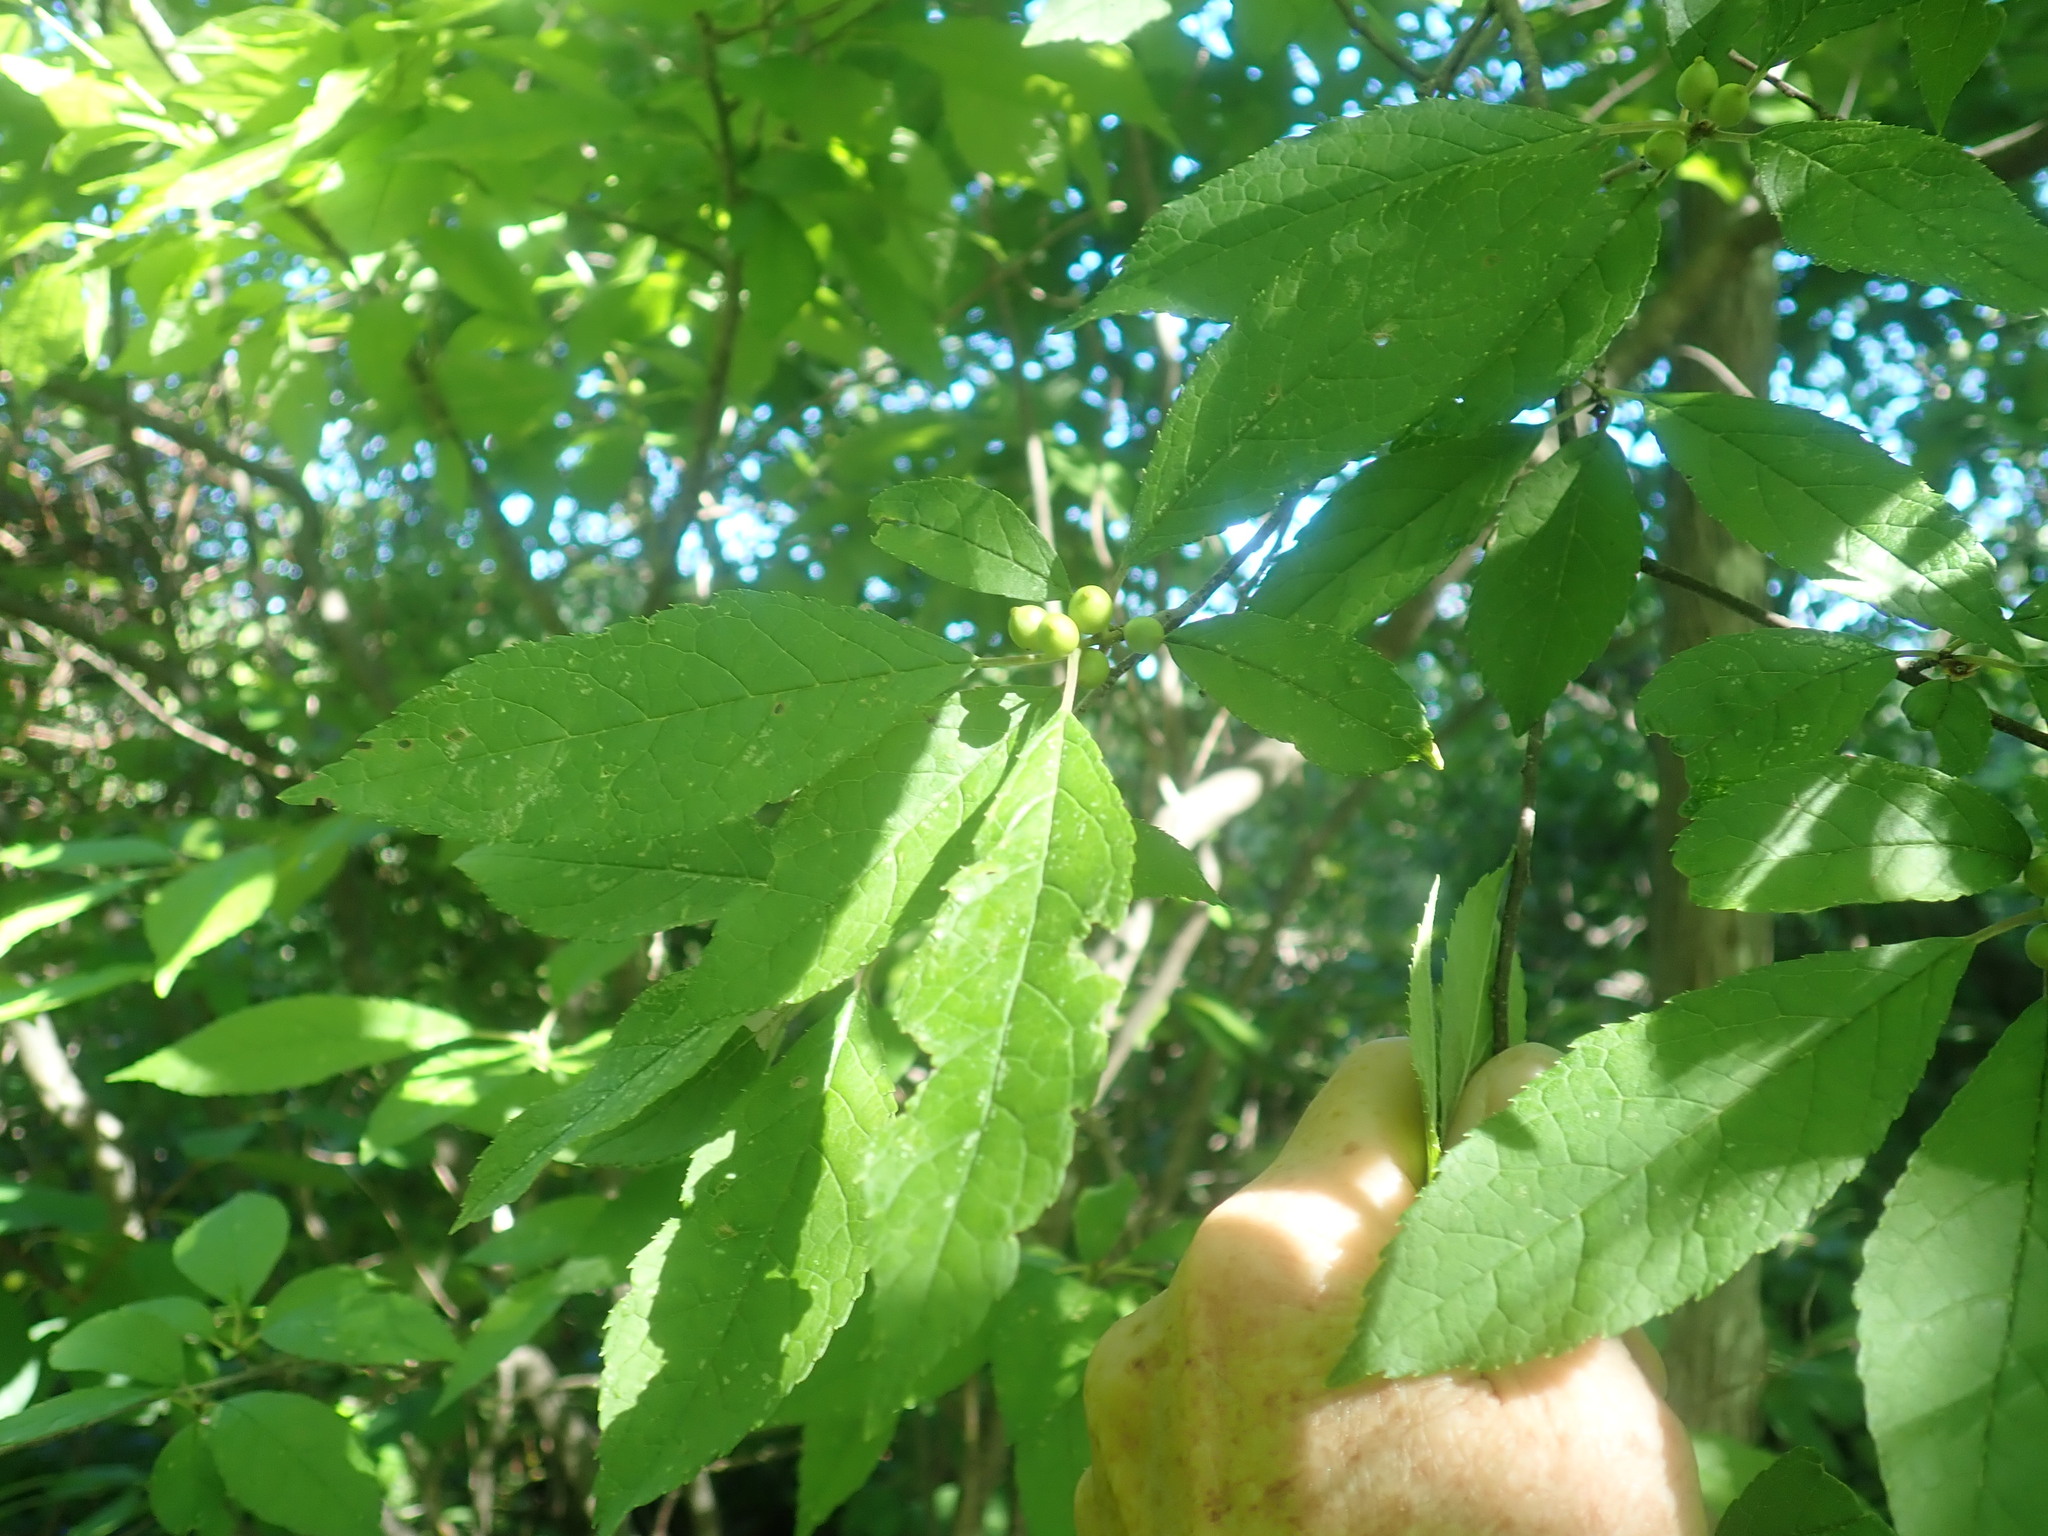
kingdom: Plantae
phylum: Tracheophyta
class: Magnoliopsida
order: Aquifoliales
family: Aquifoliaceae
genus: Ilex
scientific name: Ilex verticillata
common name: Virginia winterberry
